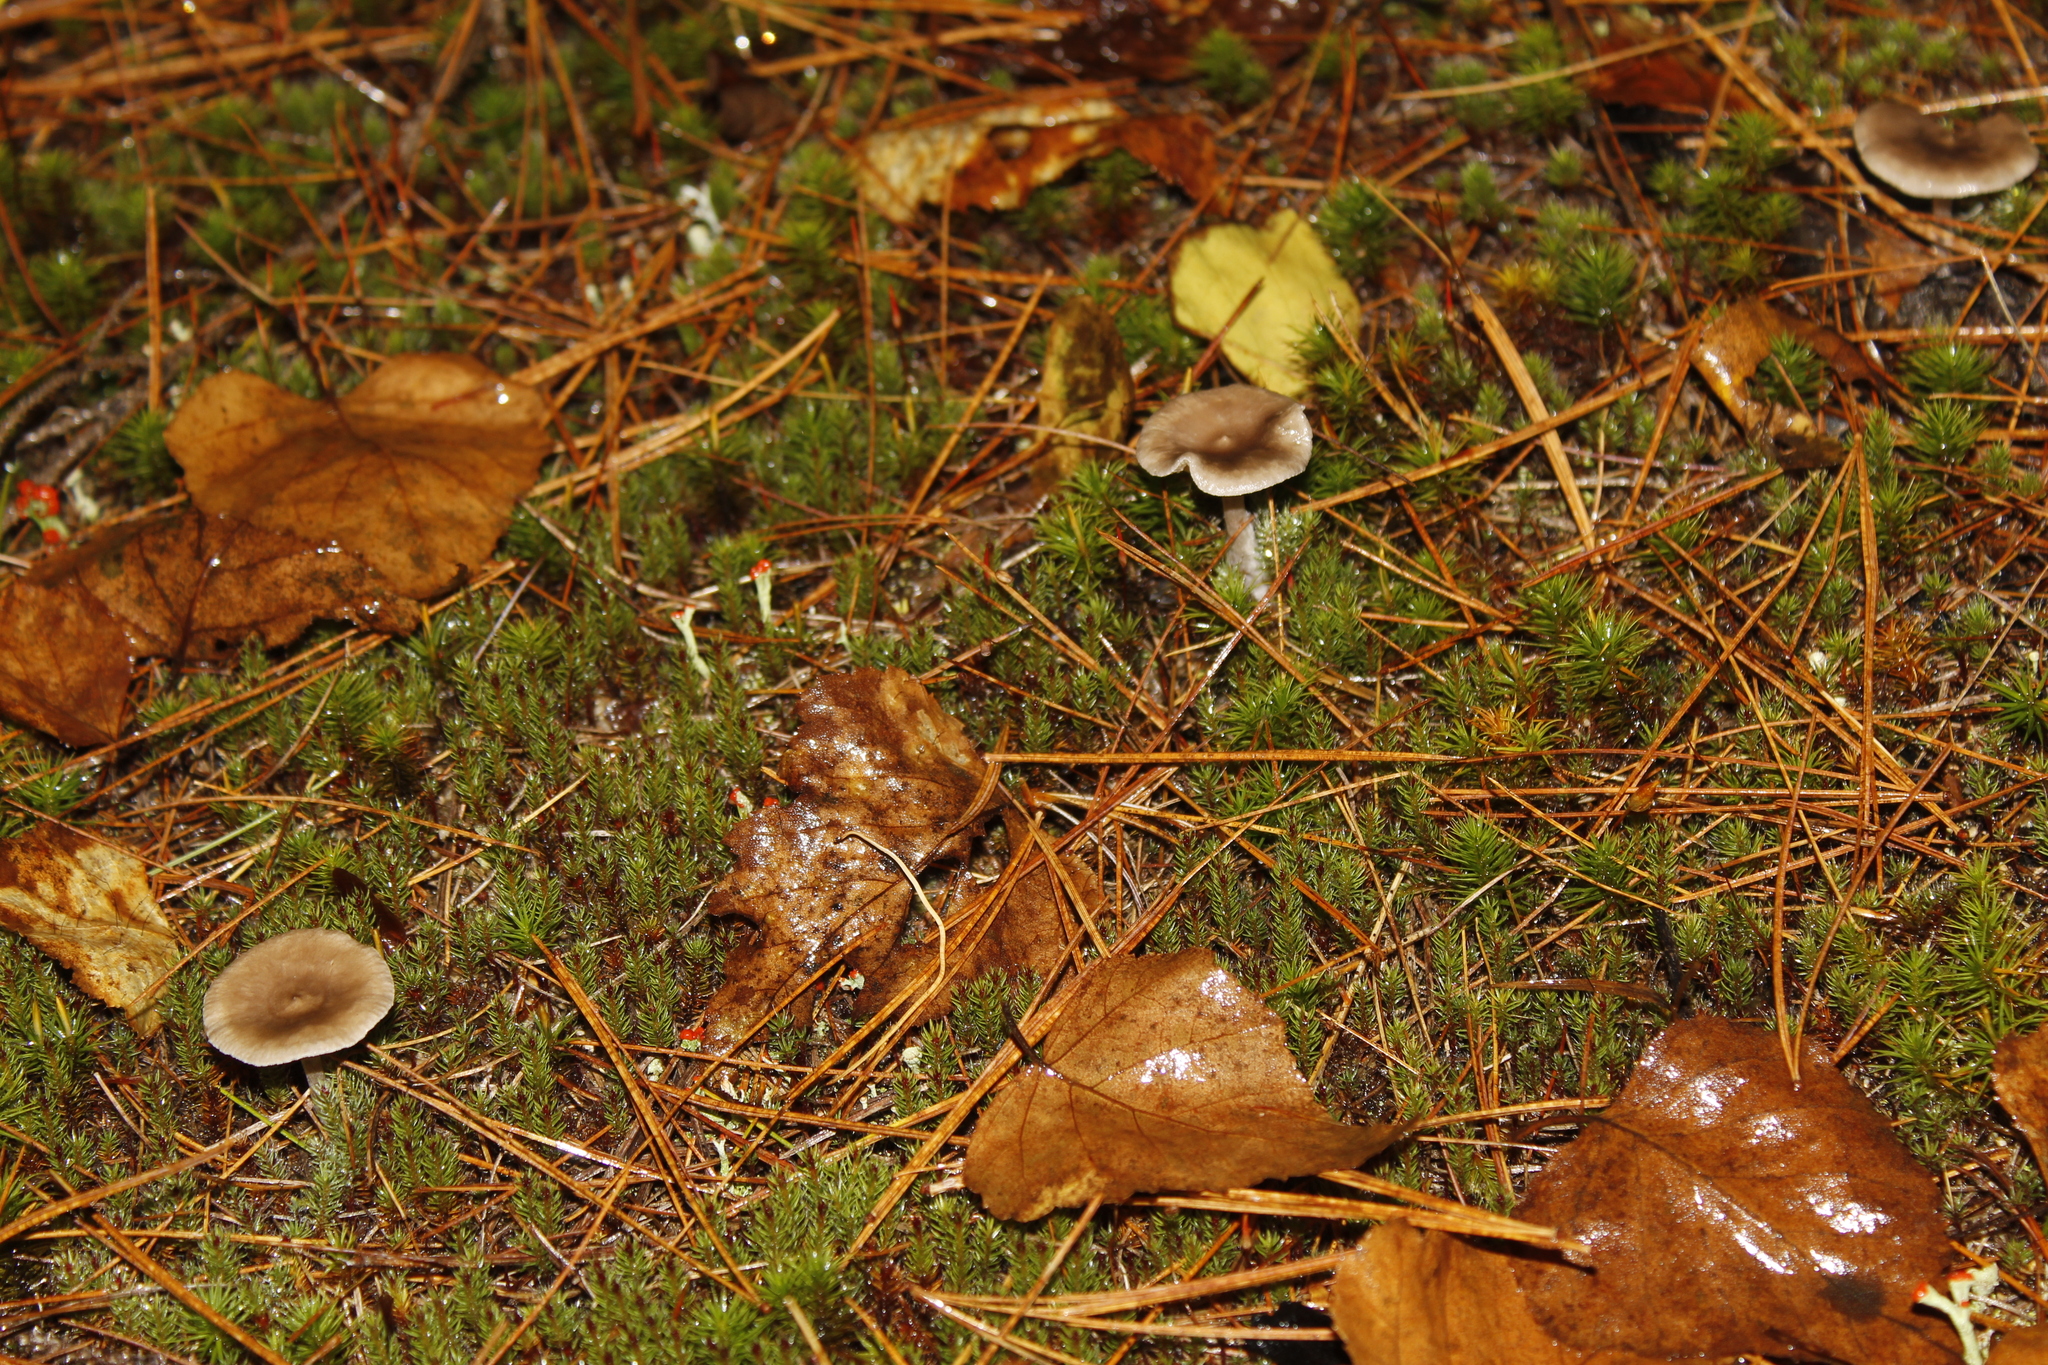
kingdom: Fungi
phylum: Basidiomycota
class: Agaricomycetes
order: Agaricales
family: Hygrophoraceae
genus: Cantharellula
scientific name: Cantharellula umbonata
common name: The humpback
